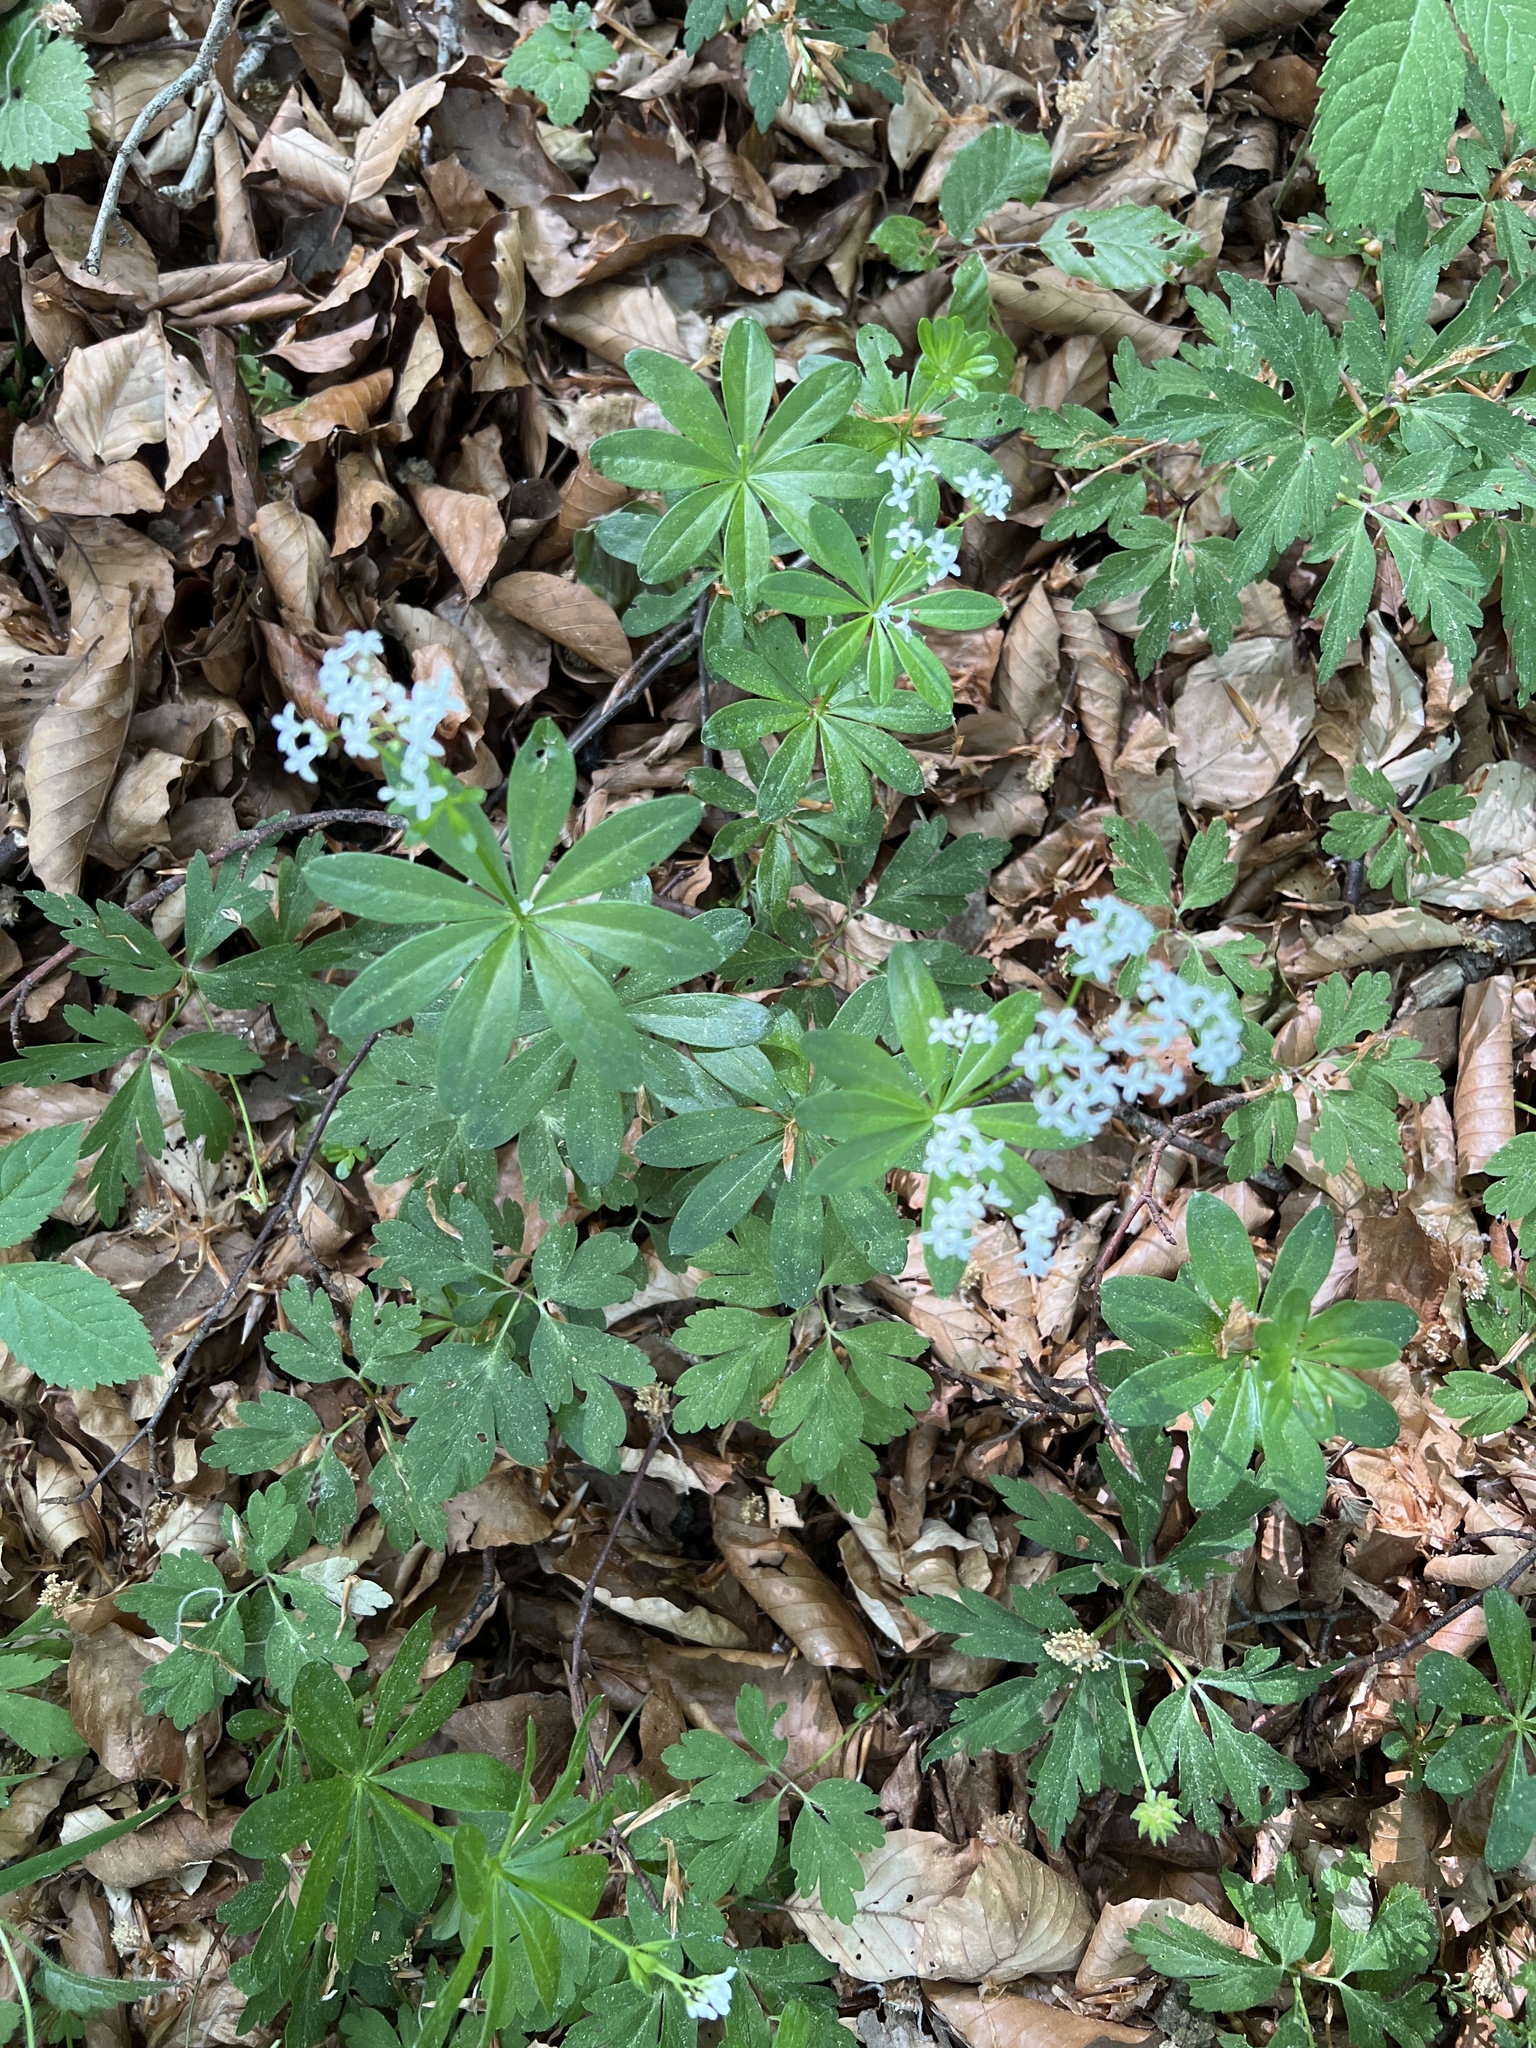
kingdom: Plantae
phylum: Tracheophyta
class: Magnoliopsida
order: Gentianales
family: Rubiaceae
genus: Galium
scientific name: Galium odoratum
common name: Sweet woodruff
